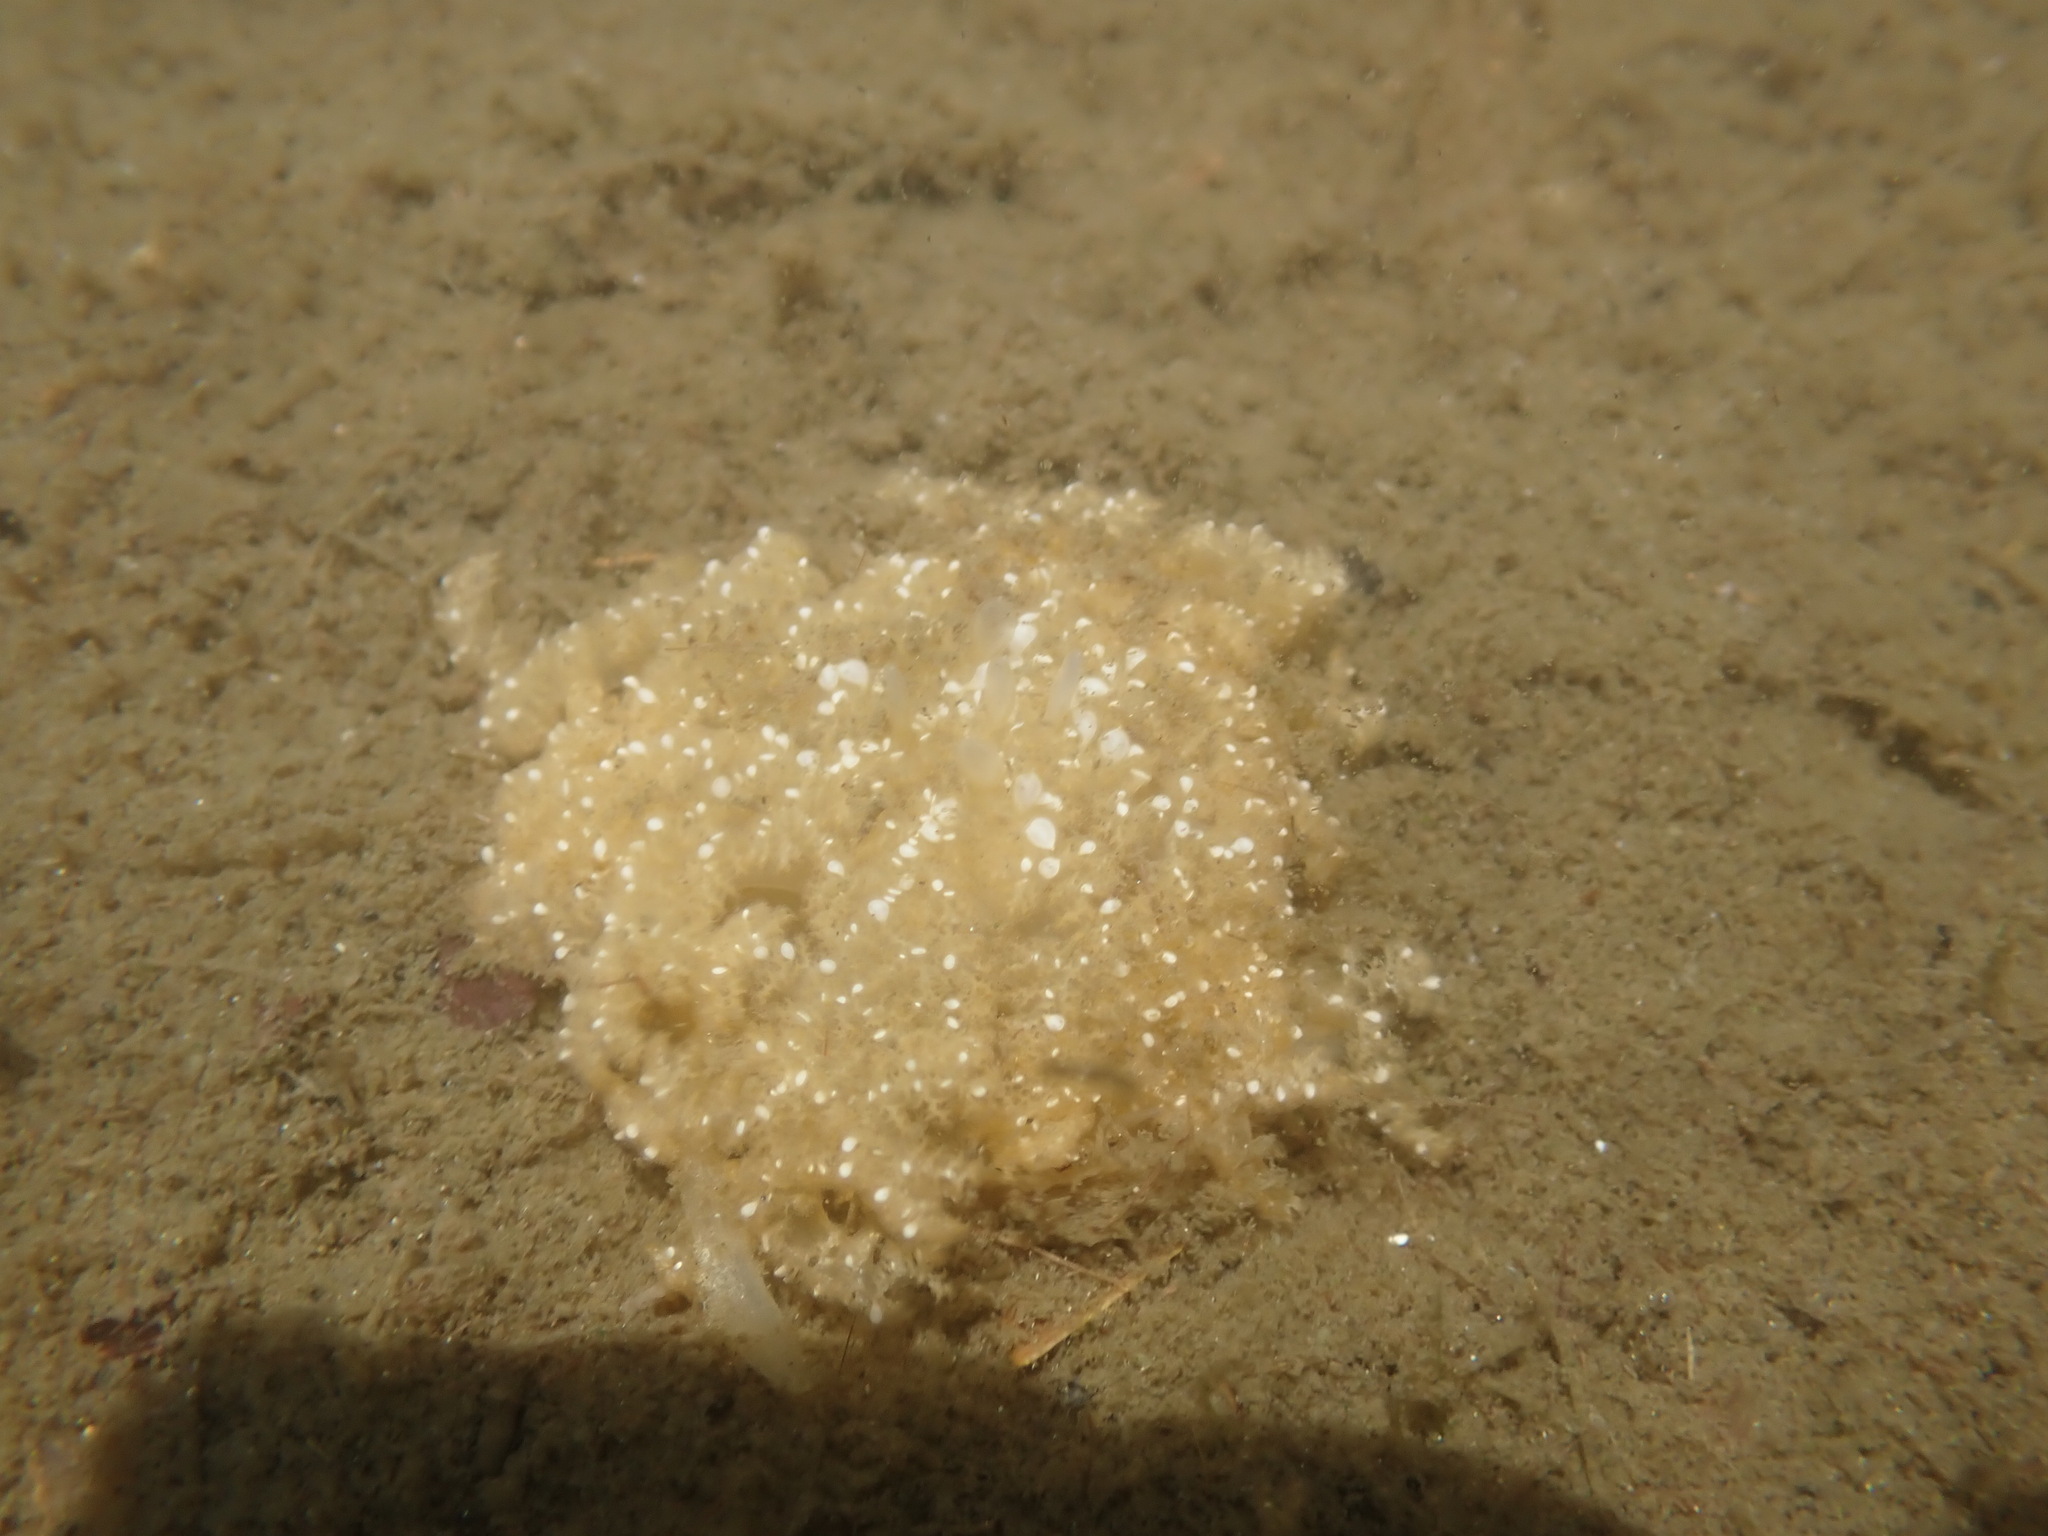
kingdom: Animalia
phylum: Cnidaria
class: Scyphozoa
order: Rhizostomeae
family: Cassiopeidae
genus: Cassiopea
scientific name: Cassiopea andromeda
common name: Upside-down jellyfish
